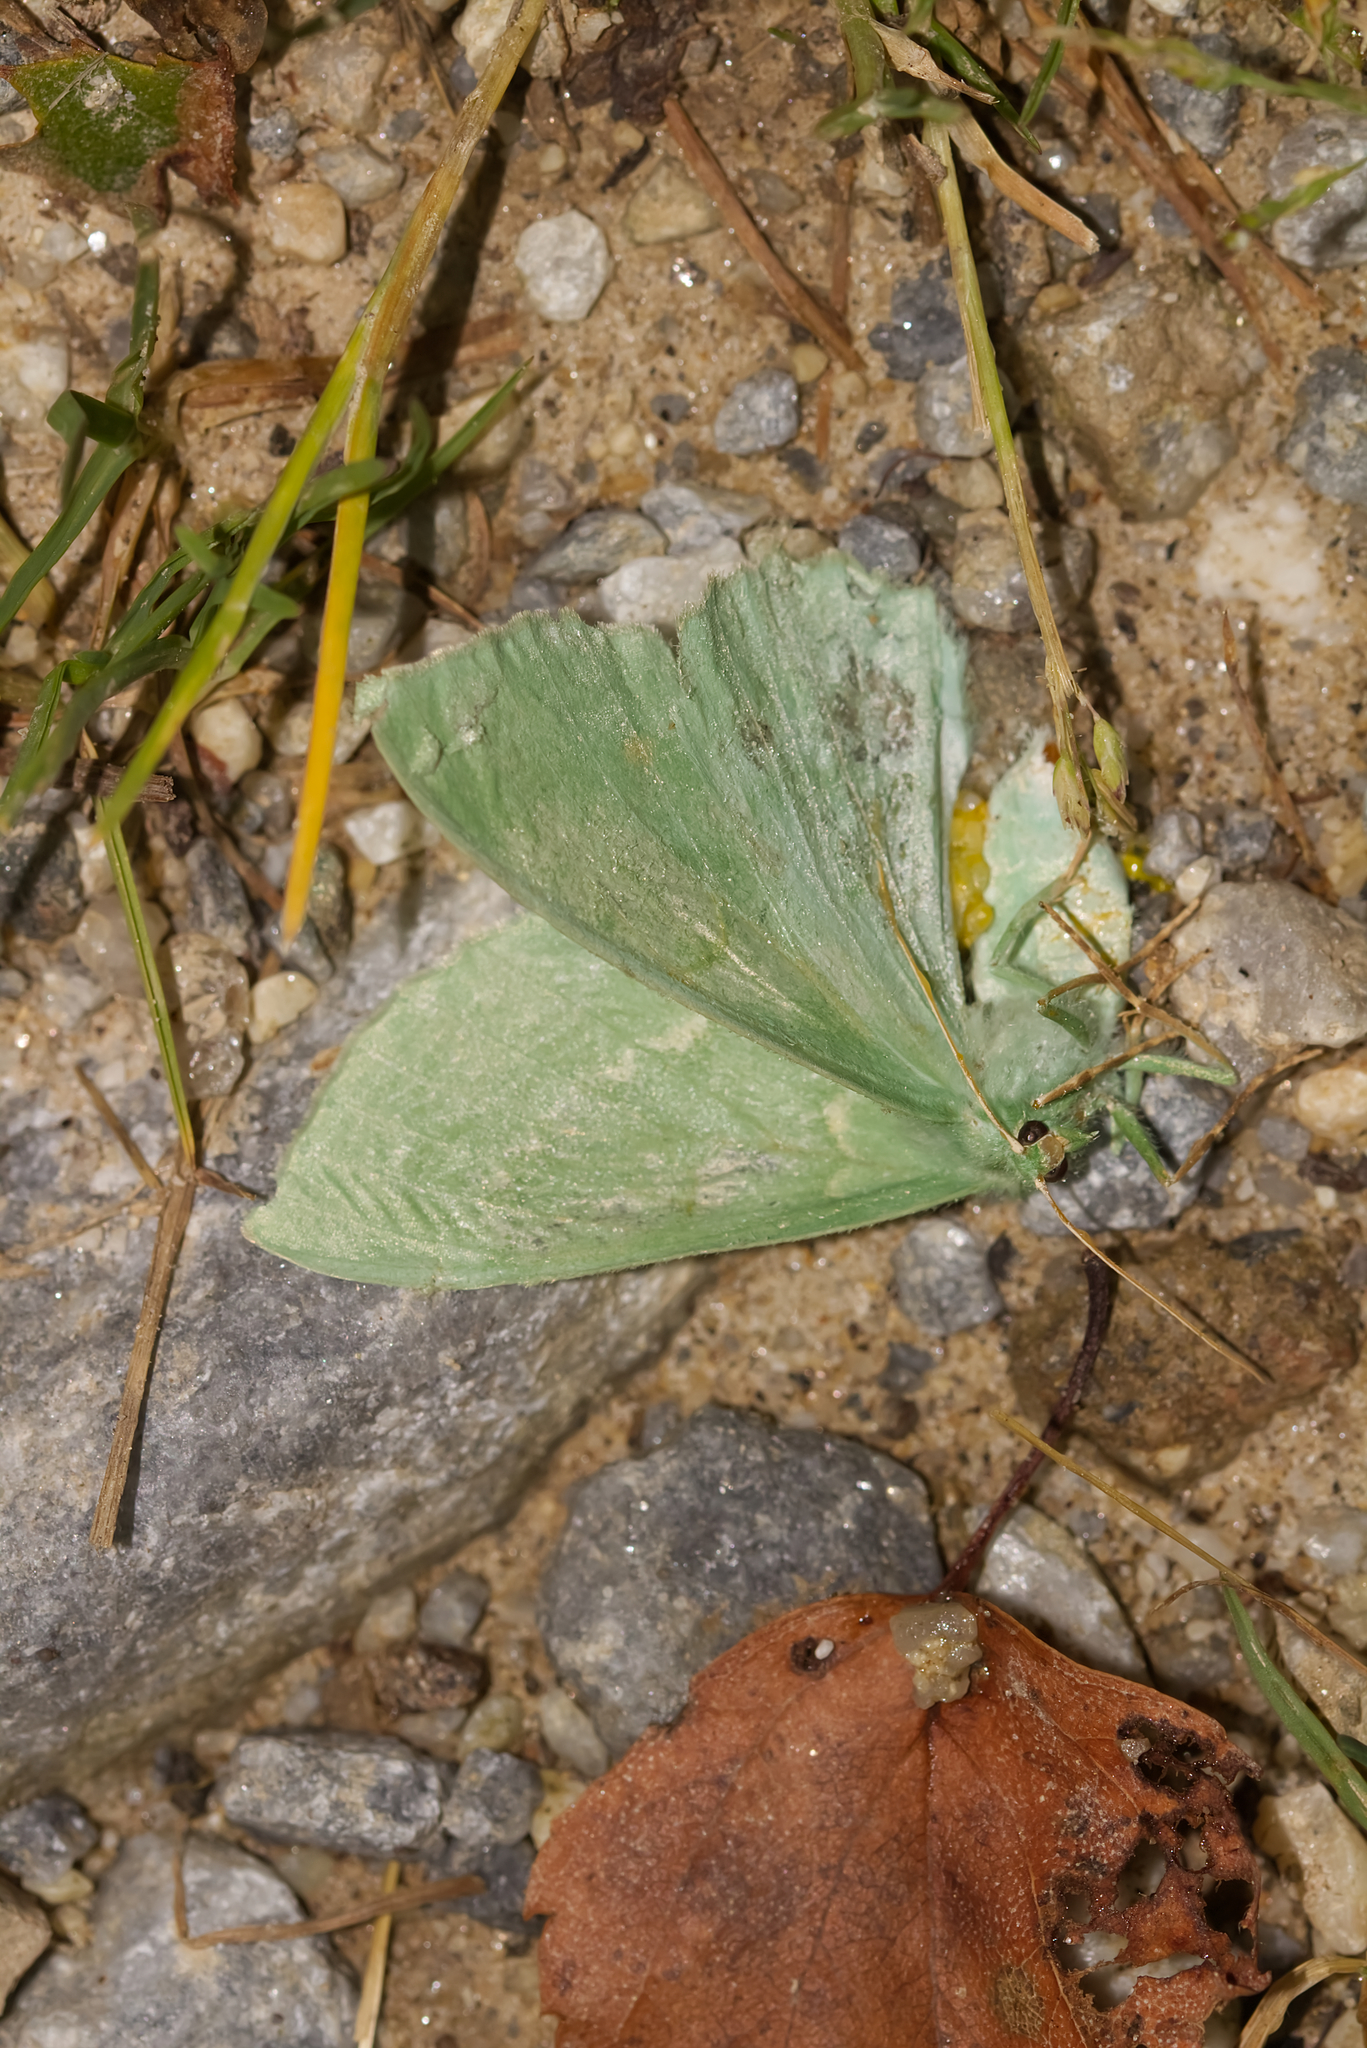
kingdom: Animalia
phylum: Arthropoda
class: Insecta
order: Lepidoptera
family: Geometridae
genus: Geometra
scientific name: Geometra papilionaria
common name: Large emerald
